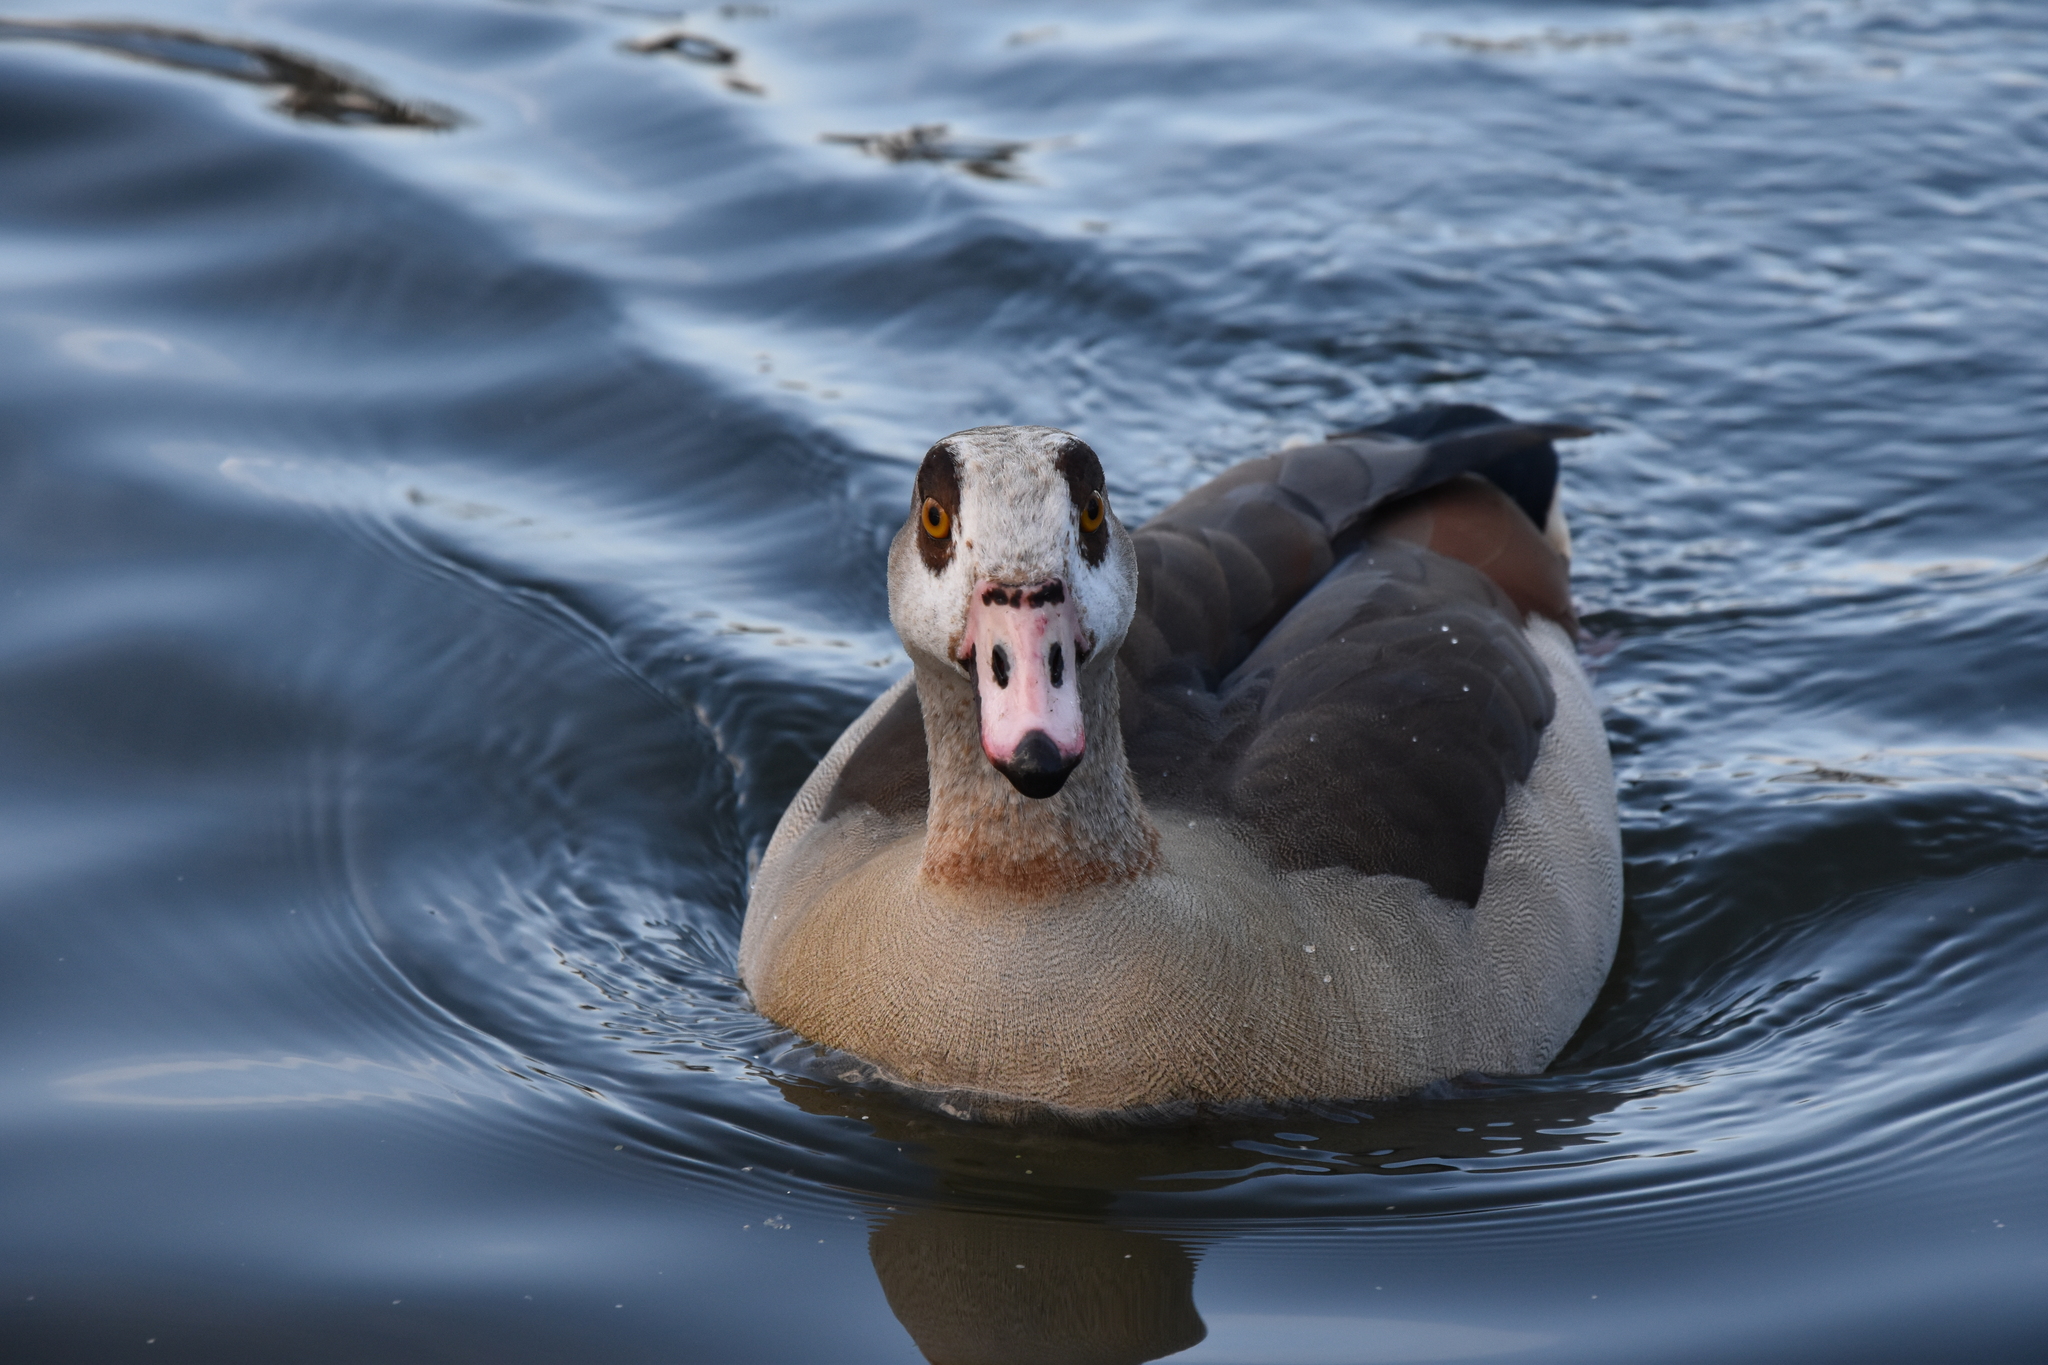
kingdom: Animalia
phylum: Chordata
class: Aves
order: Anseriformes
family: Anatidae
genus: Alopochen
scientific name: Alopochen aegyptiaca
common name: Egyptian goose
